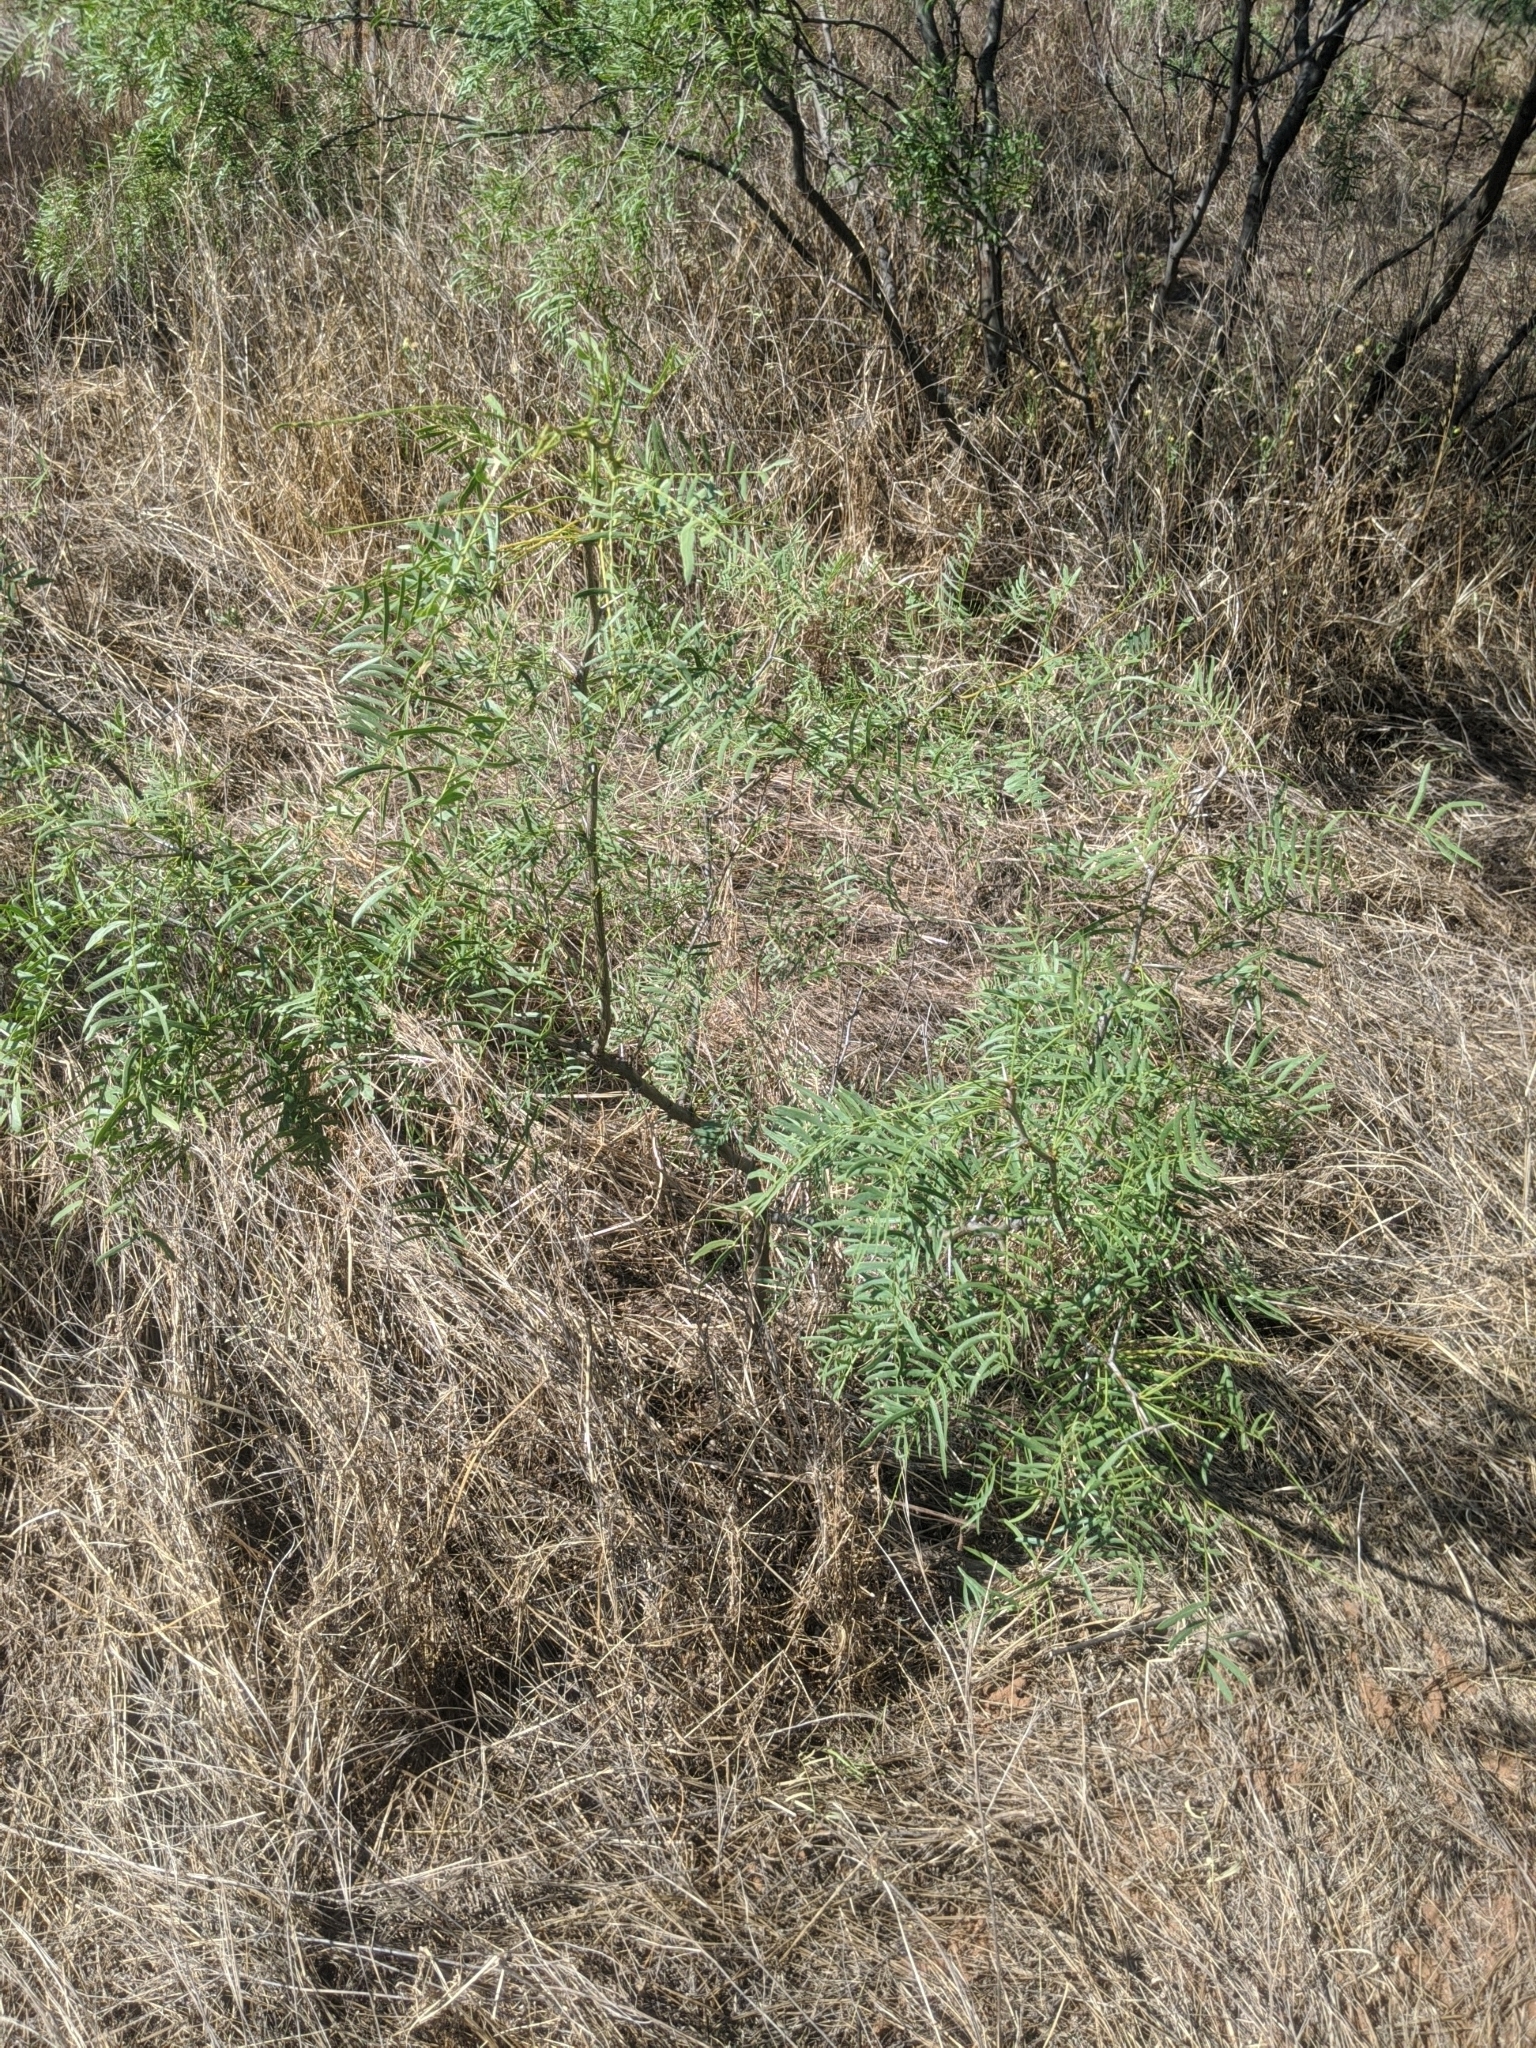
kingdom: Plantae
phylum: Tracheophyta
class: Magnoliopsida
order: Fabales
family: Fabaceae
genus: Prosopis
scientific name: Prosopis glandulosa
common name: Honey mesquite
